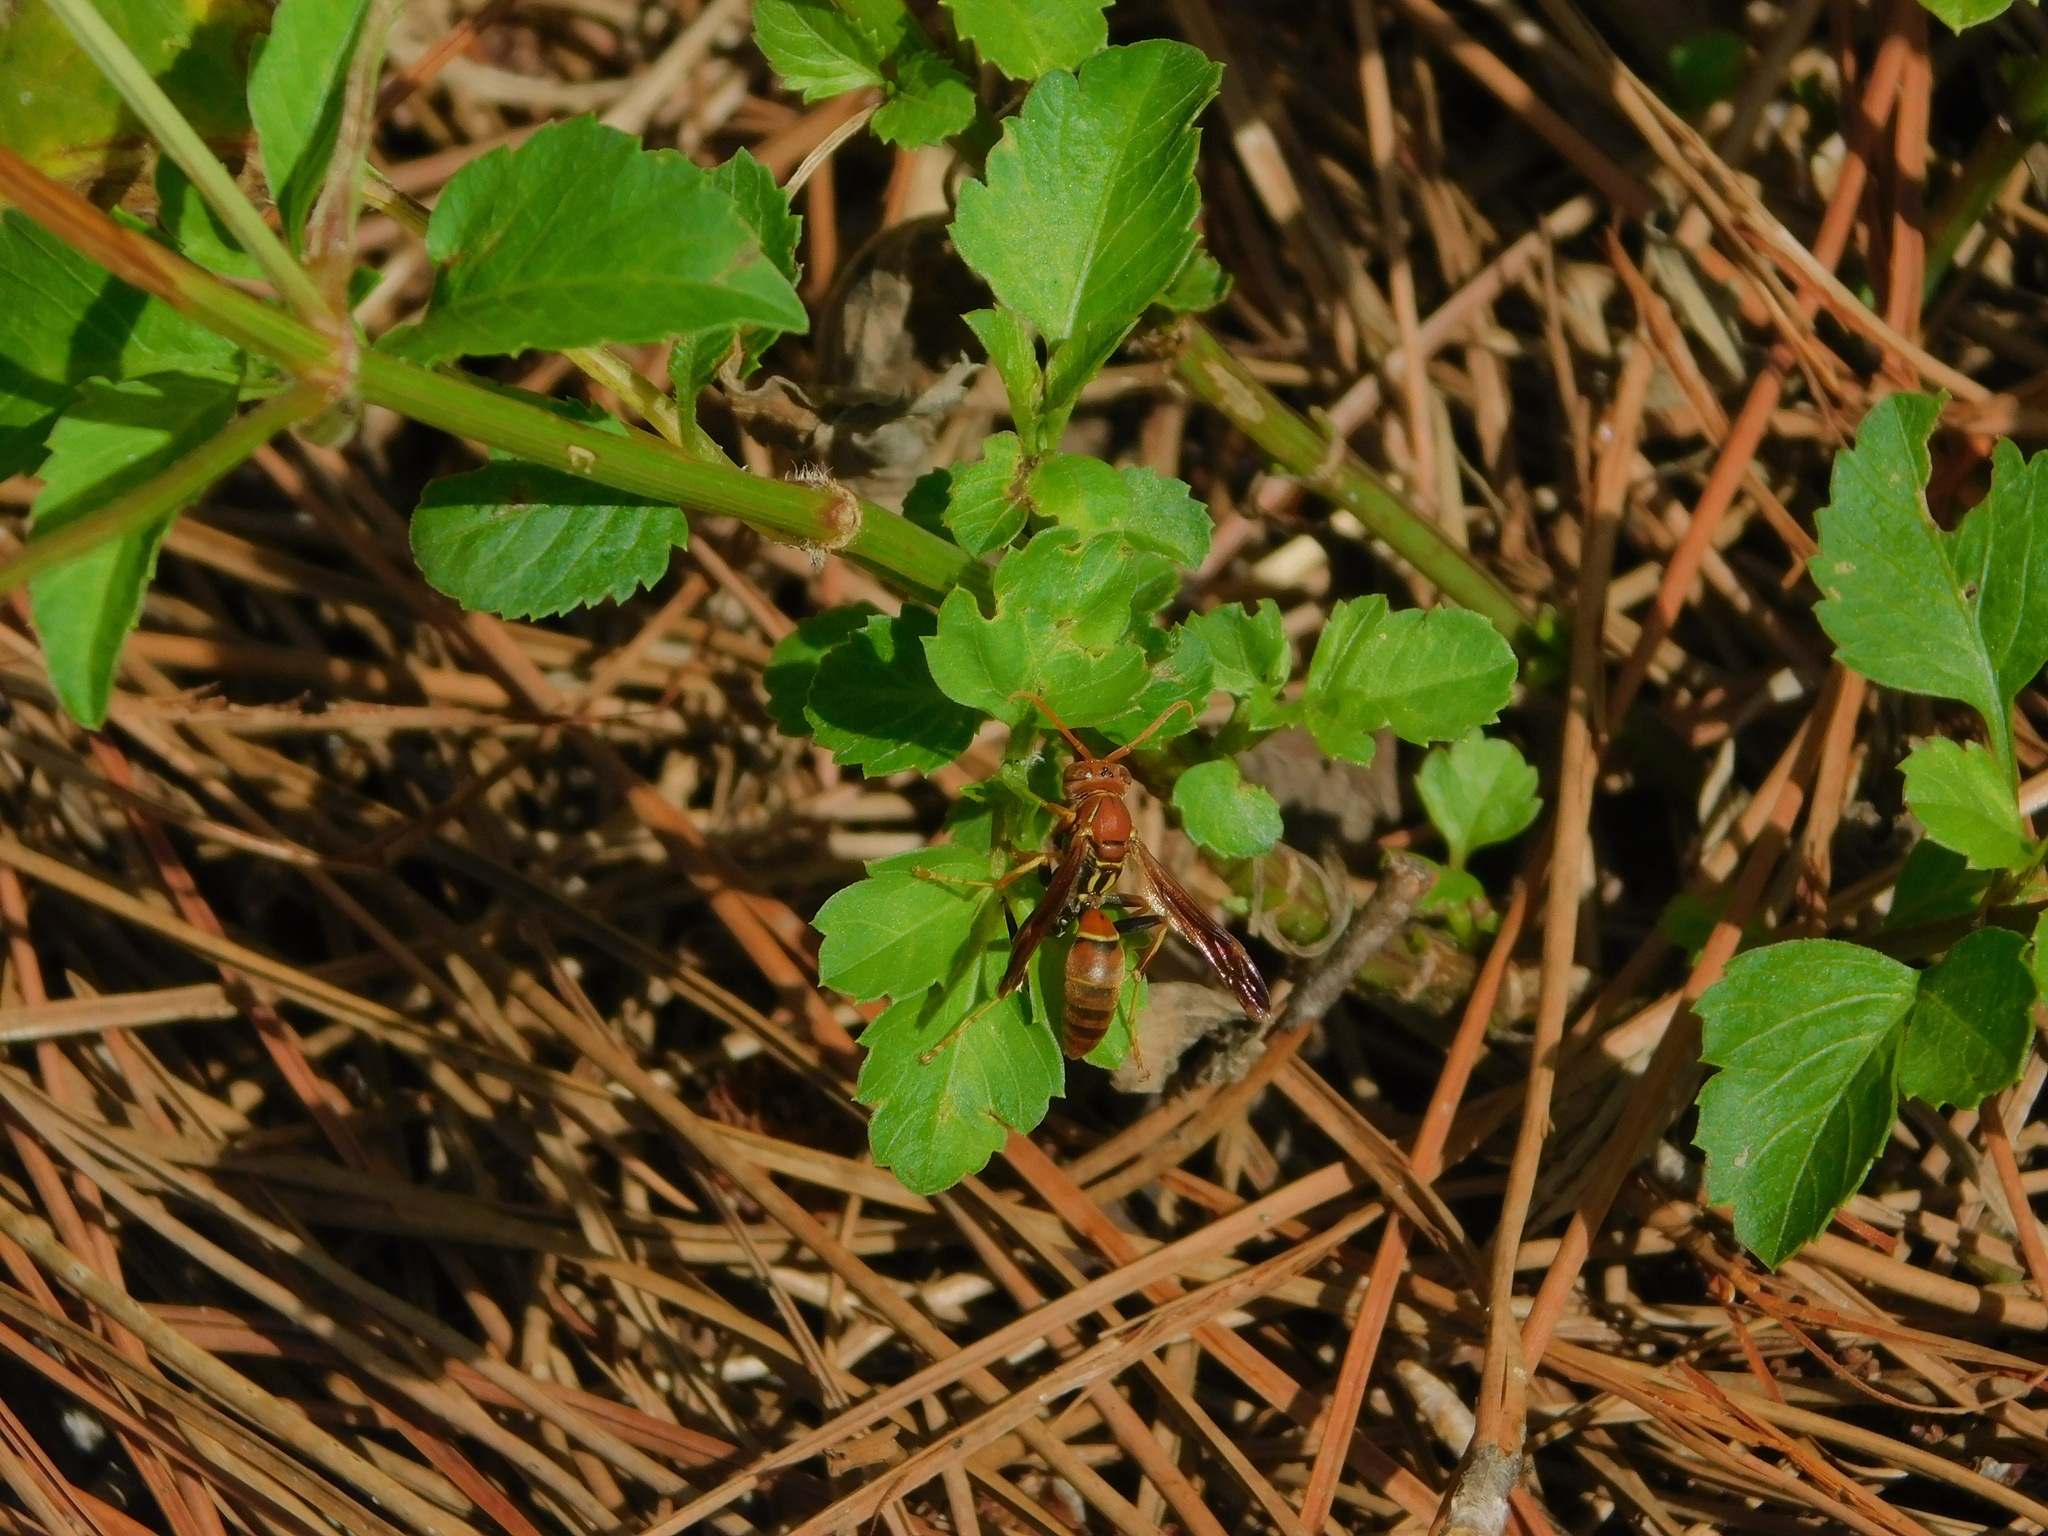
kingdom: Plantae
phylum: Tracheophyta
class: Magnoliopsida
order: Asterales
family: Asteraceae
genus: Bidens
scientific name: Bidens alba
